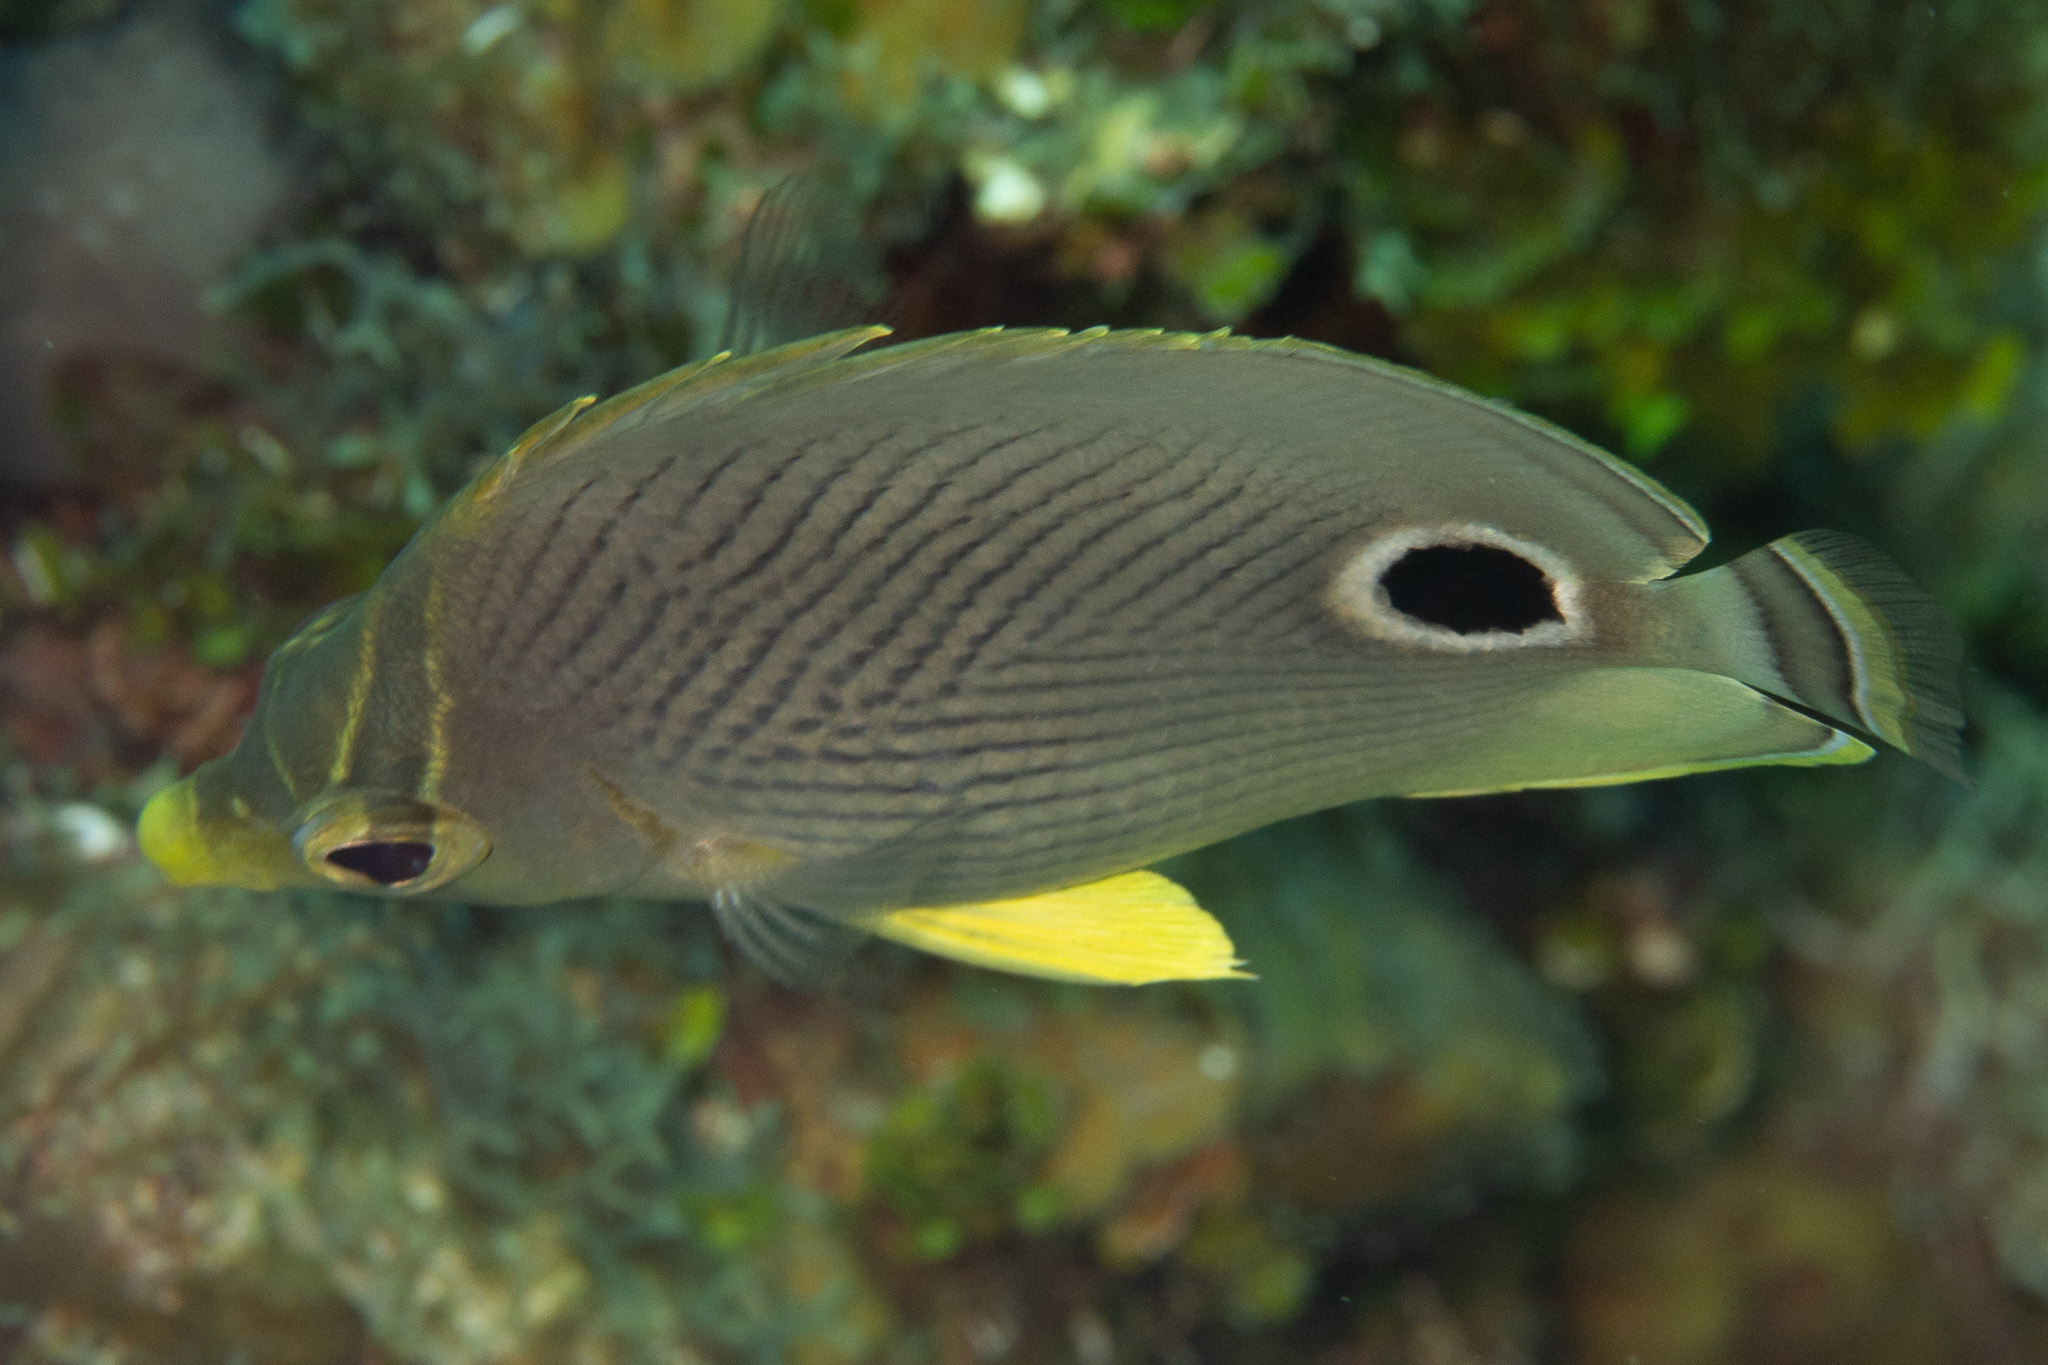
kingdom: Animalia
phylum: Chordata
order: Perciformes
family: Chaetodontidae
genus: Chaetodon
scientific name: Chaetodon capistratus
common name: Kete
